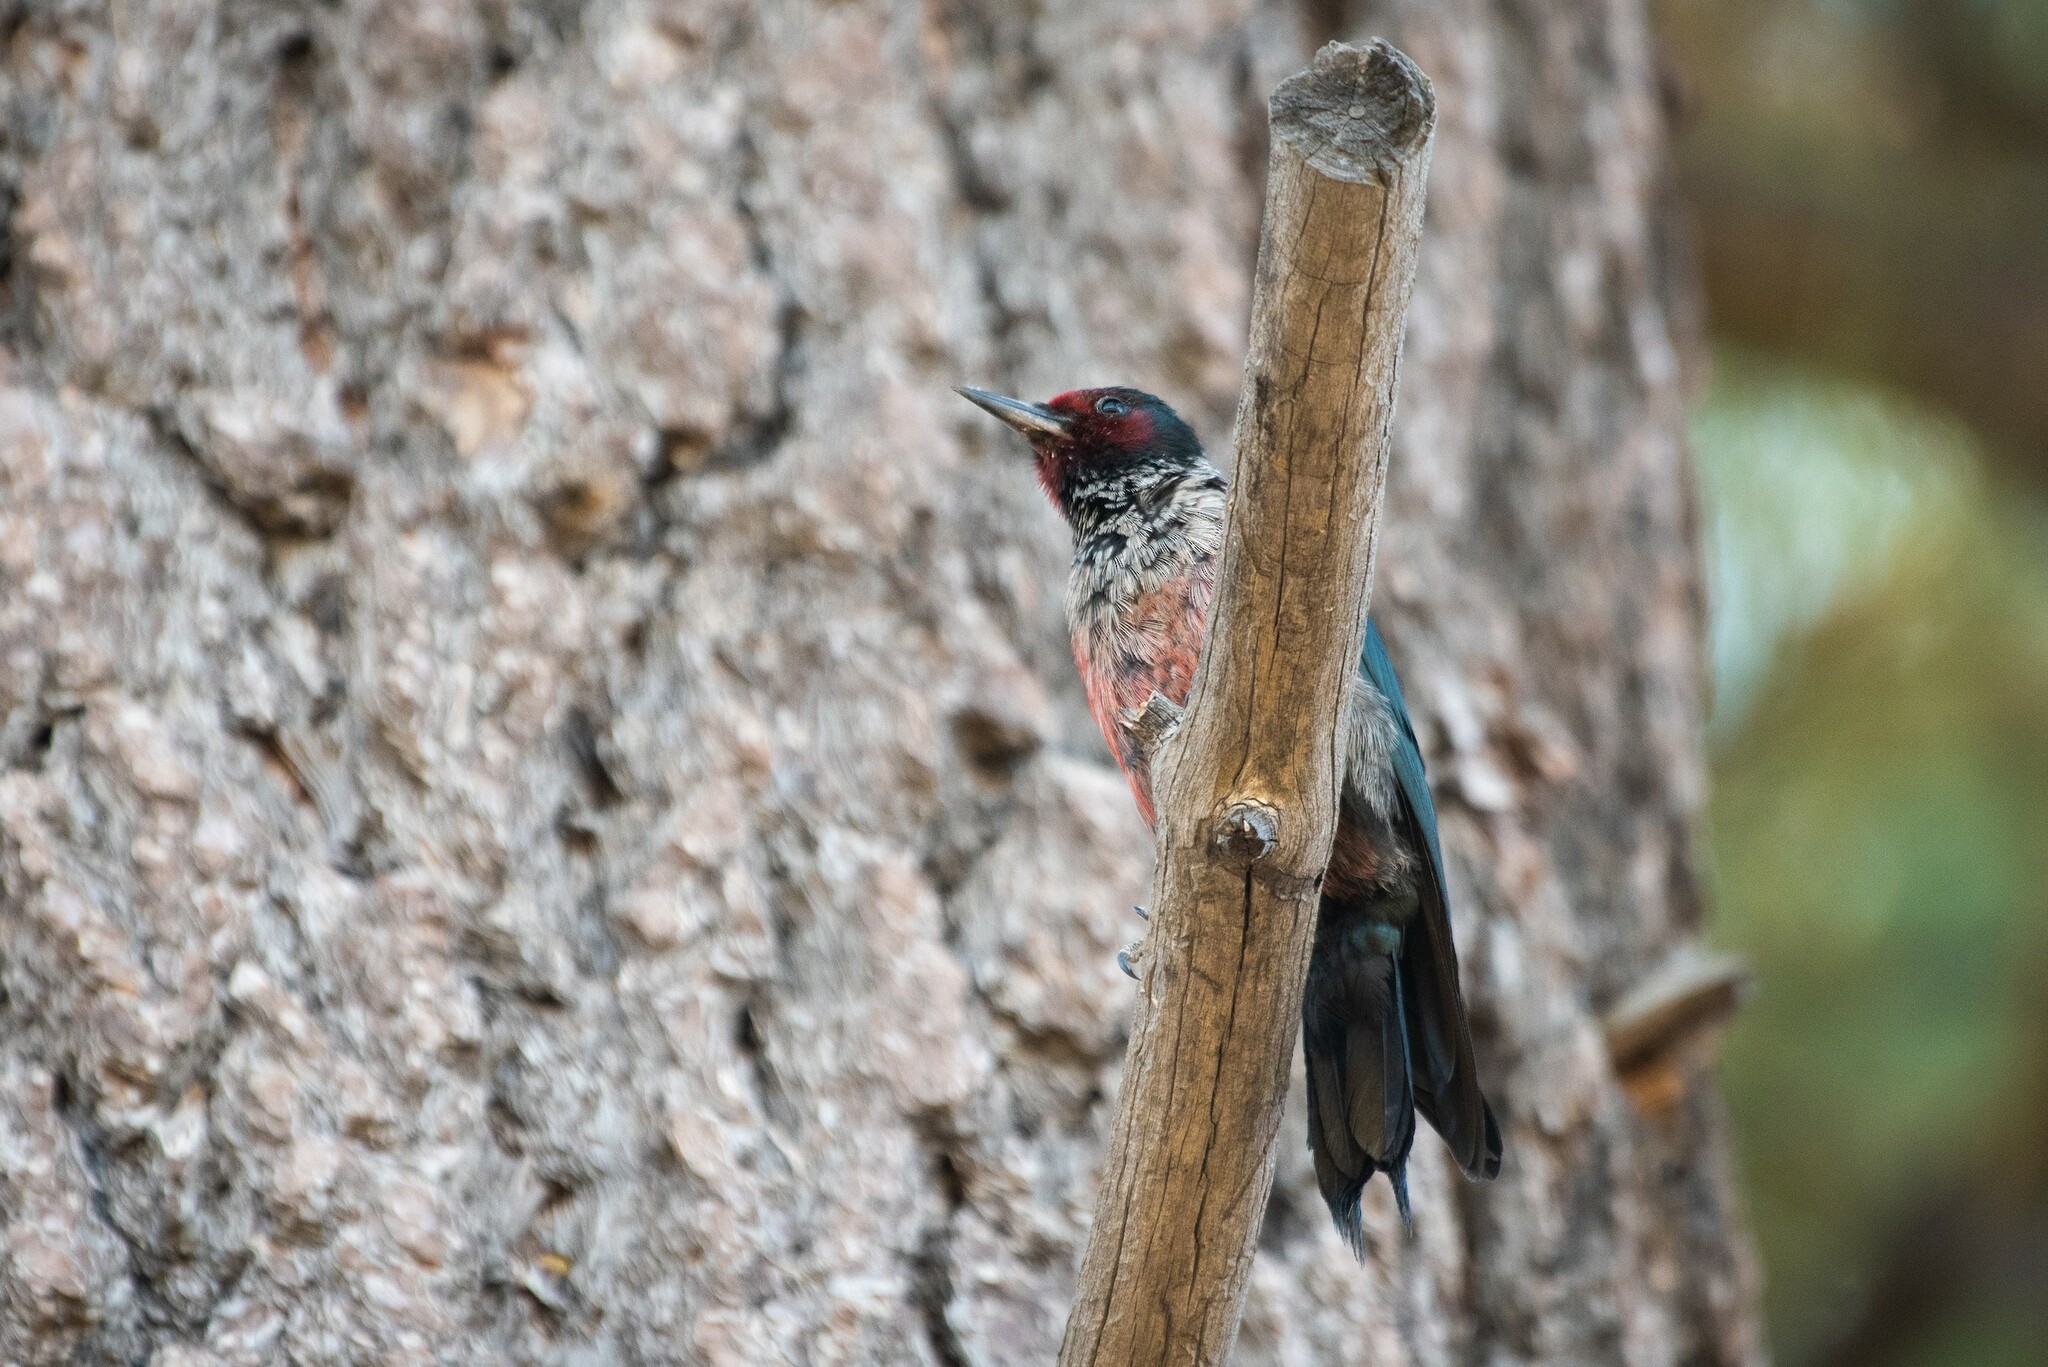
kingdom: Animalia
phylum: Chordata
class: Aves
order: Piciformes
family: Picidae
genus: Melanerpes
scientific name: Melanerpes lewis
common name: Lewis's woodpecker
